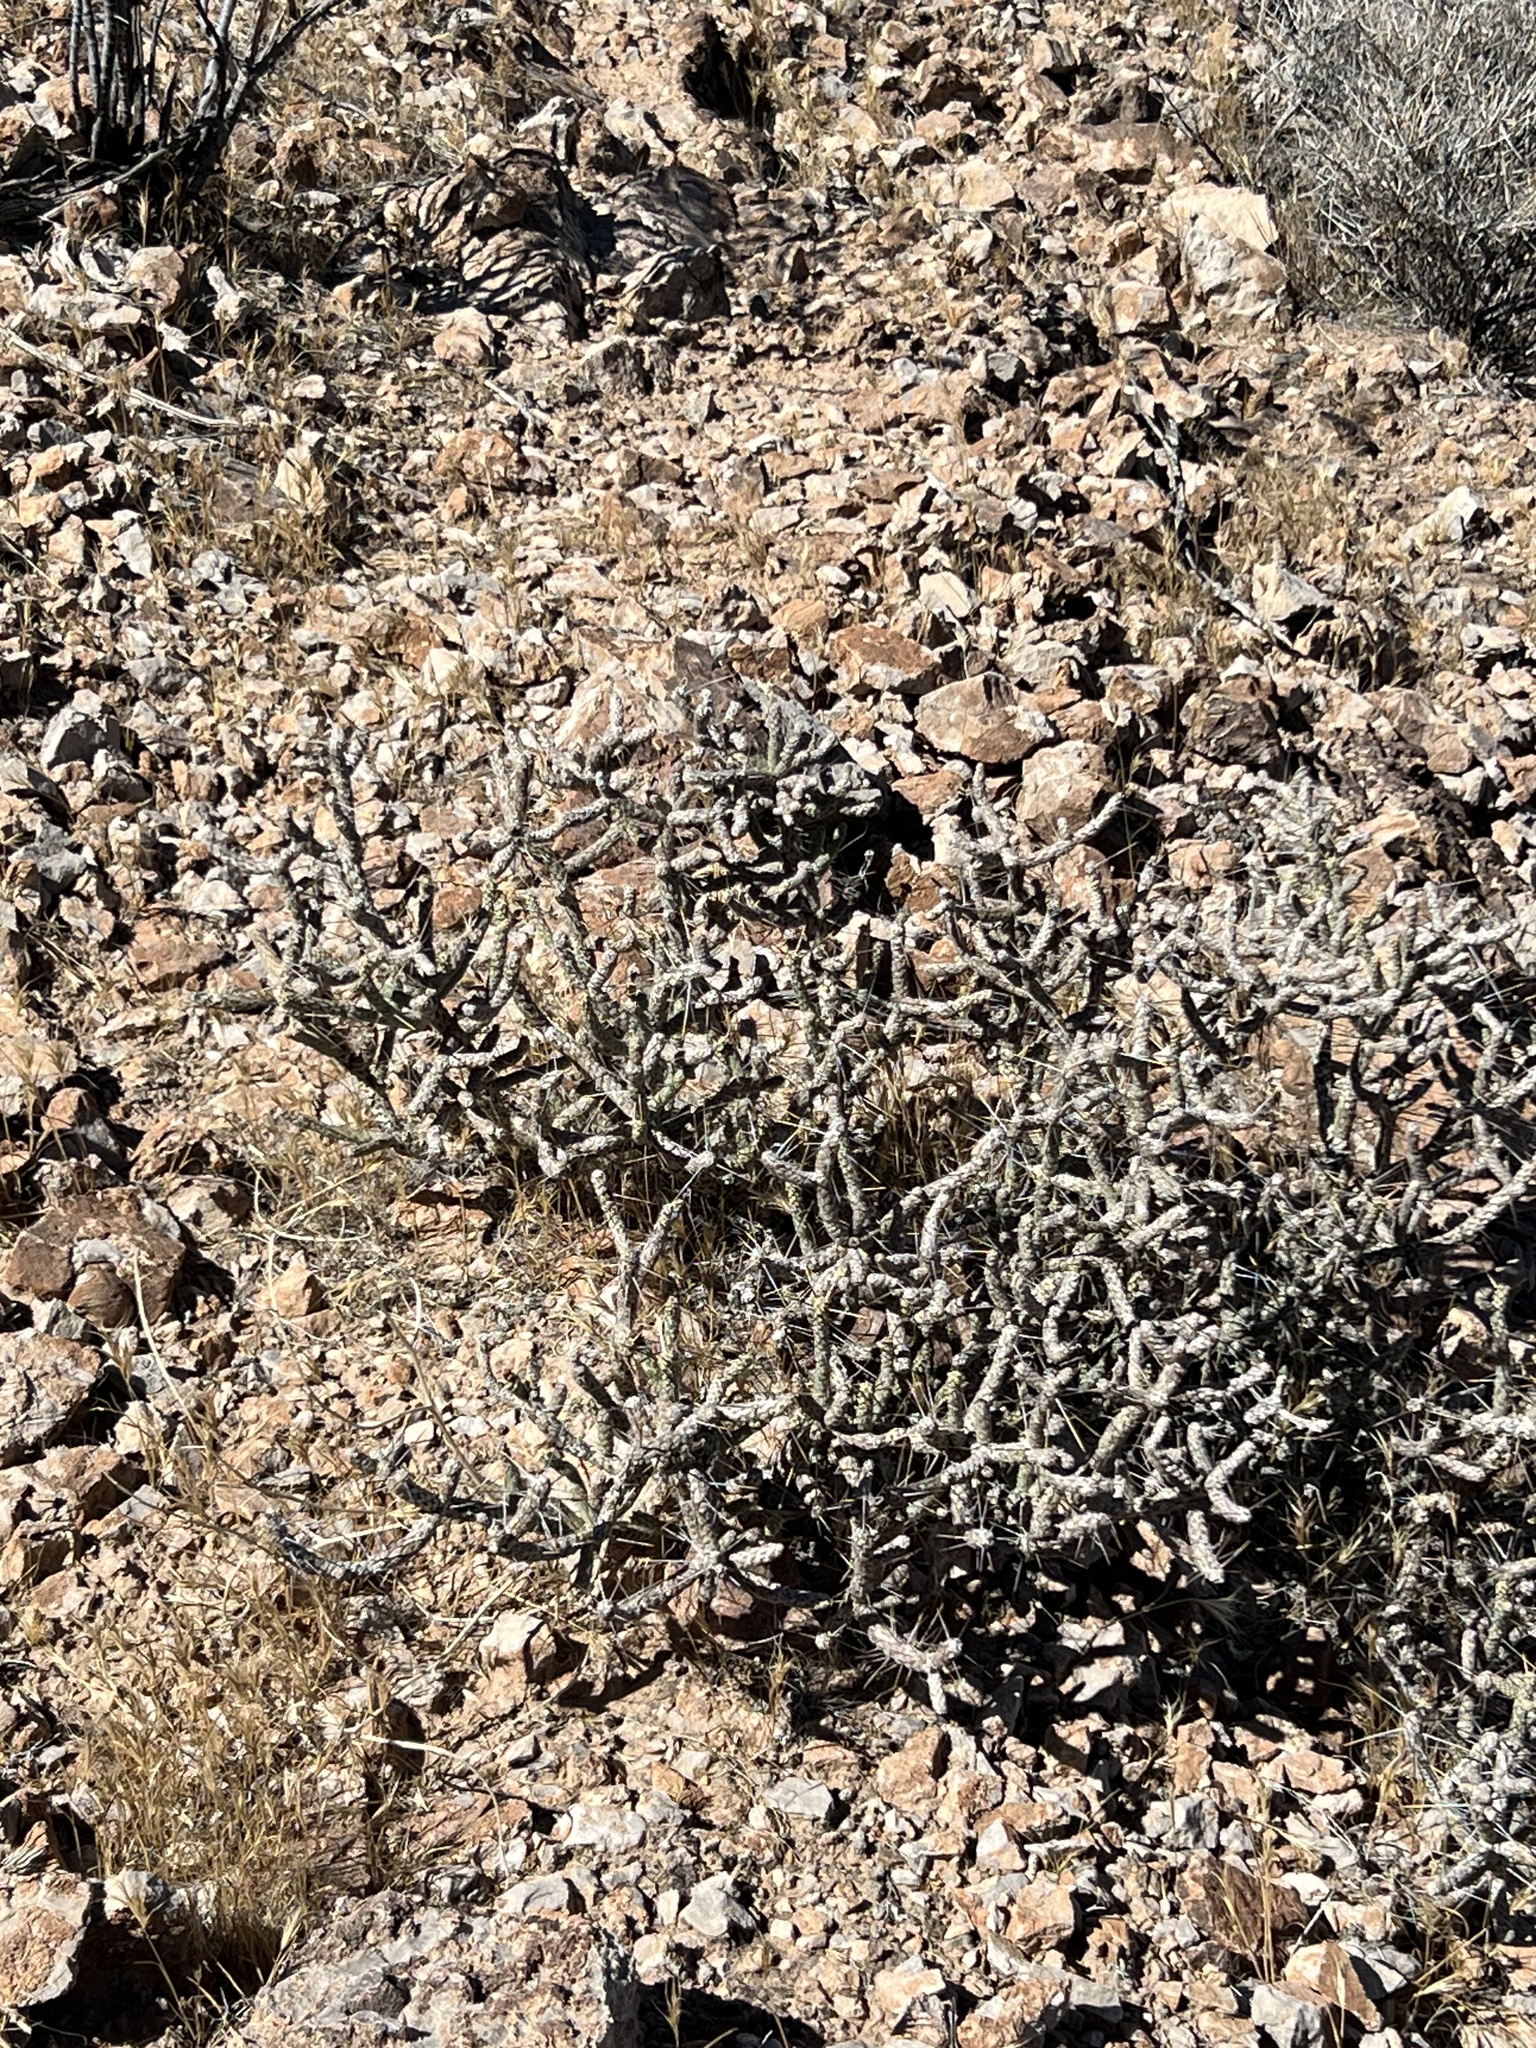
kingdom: Plantae
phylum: Tracheophyta
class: Magnoliopsida
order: Caryophyllales
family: Cactaceae
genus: Cylindropuntia
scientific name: Cylindropuntia ramosissima
